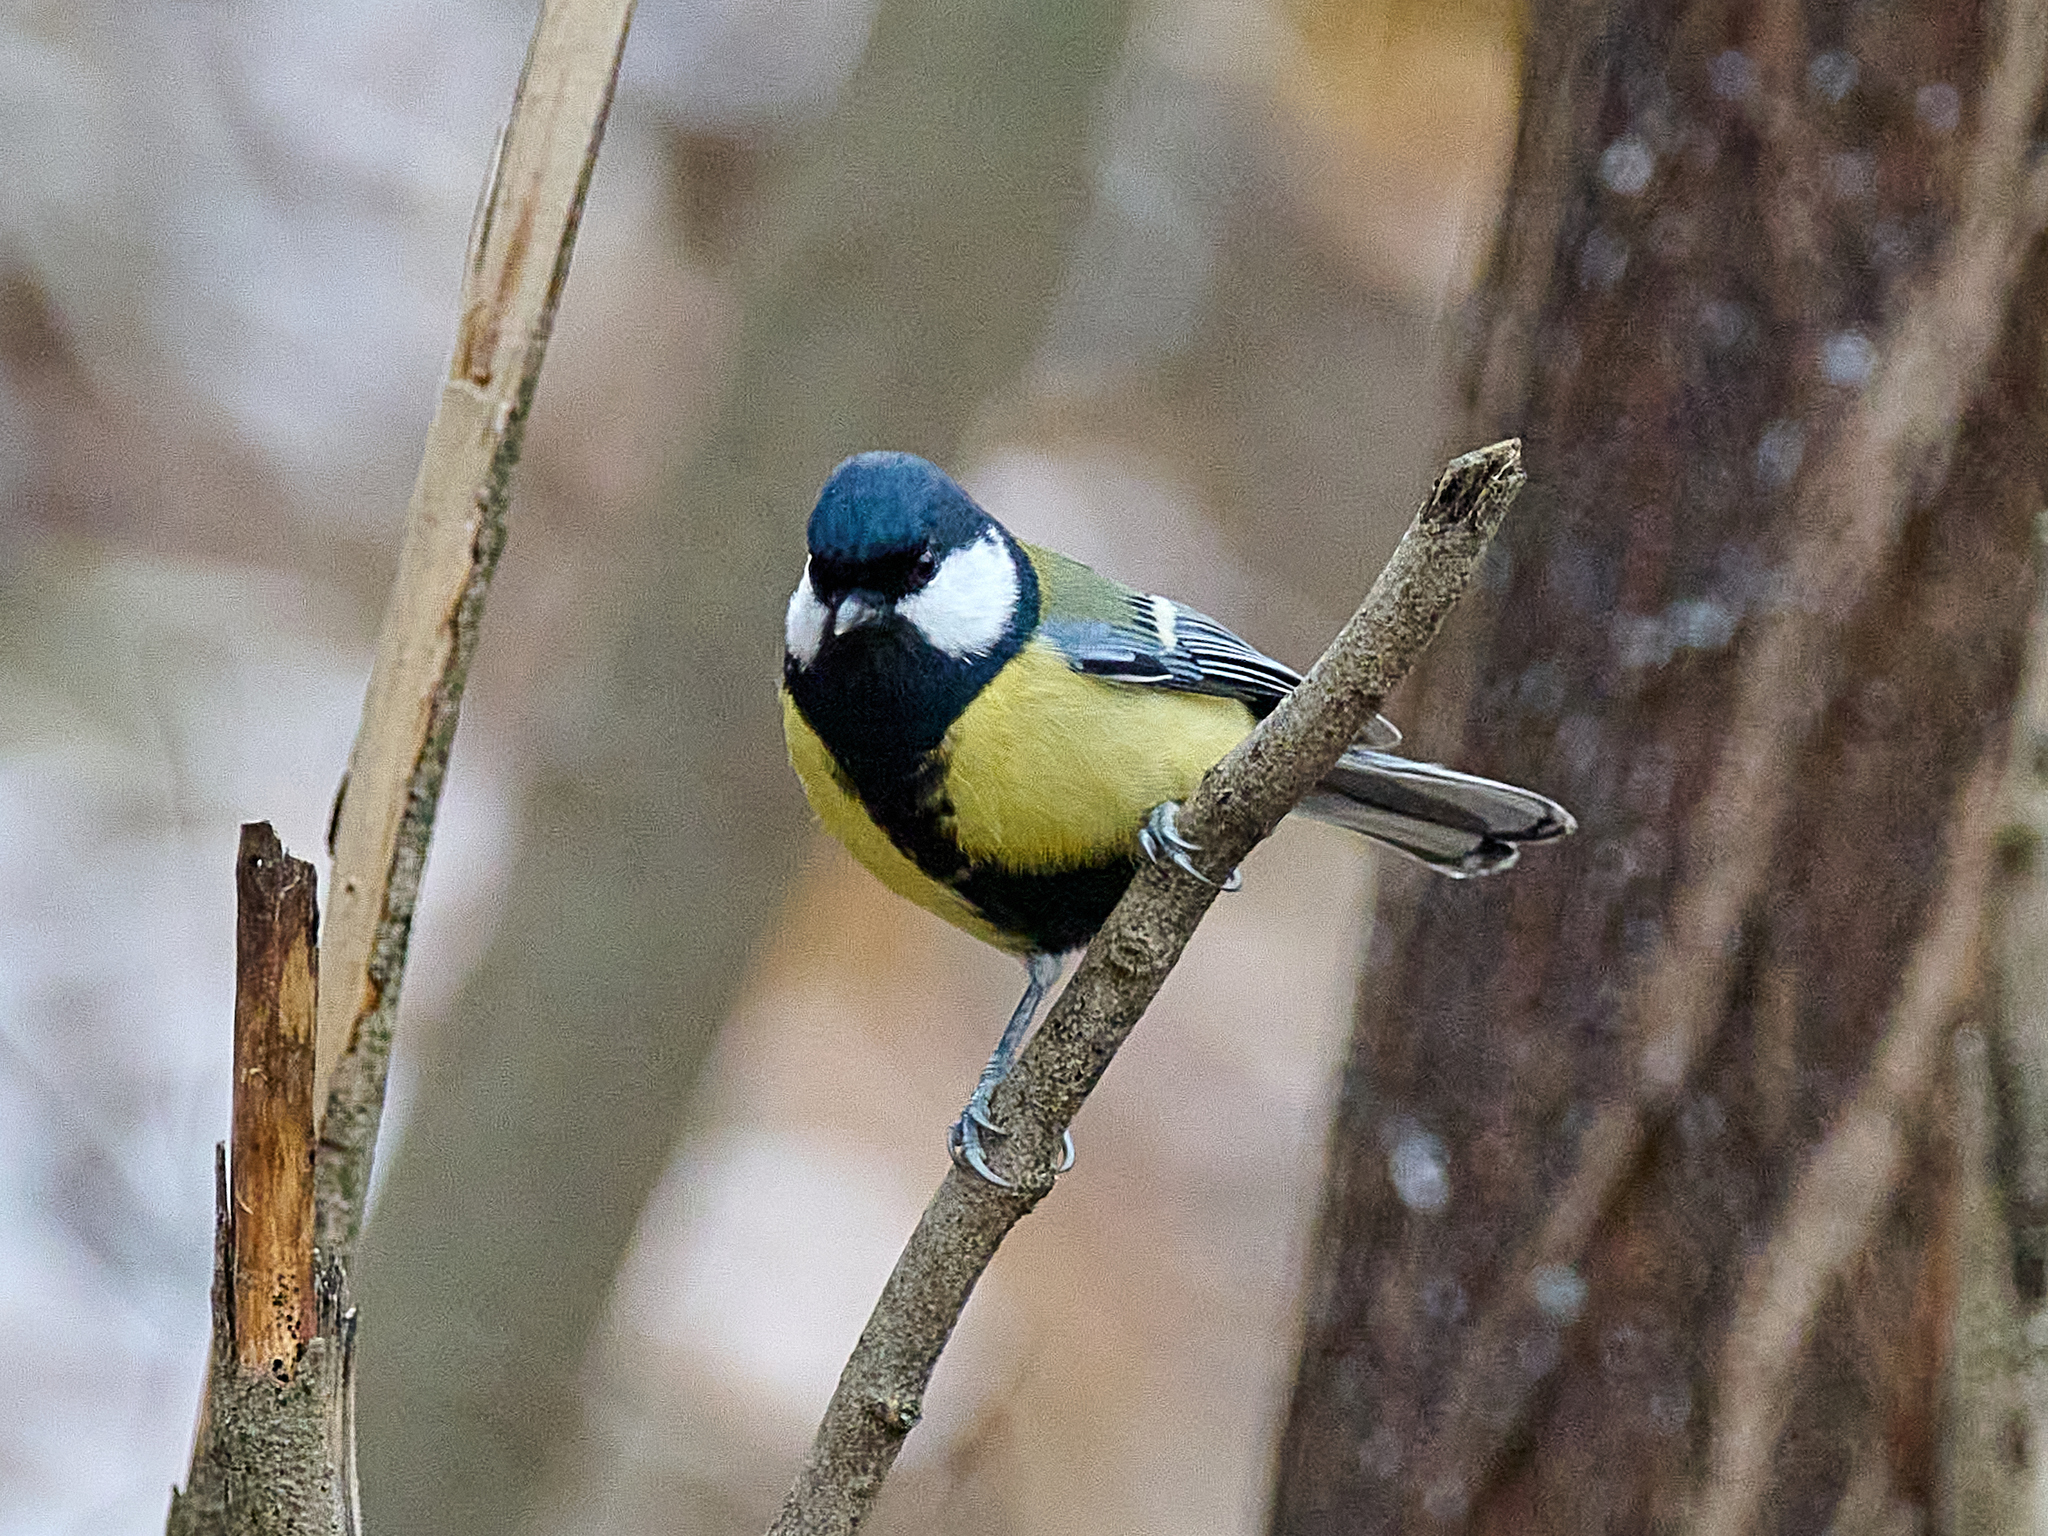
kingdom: Animalia
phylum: Chordata
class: Aves
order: Passeriformes
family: Paridae
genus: Parus
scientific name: Parus major
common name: Great tit
